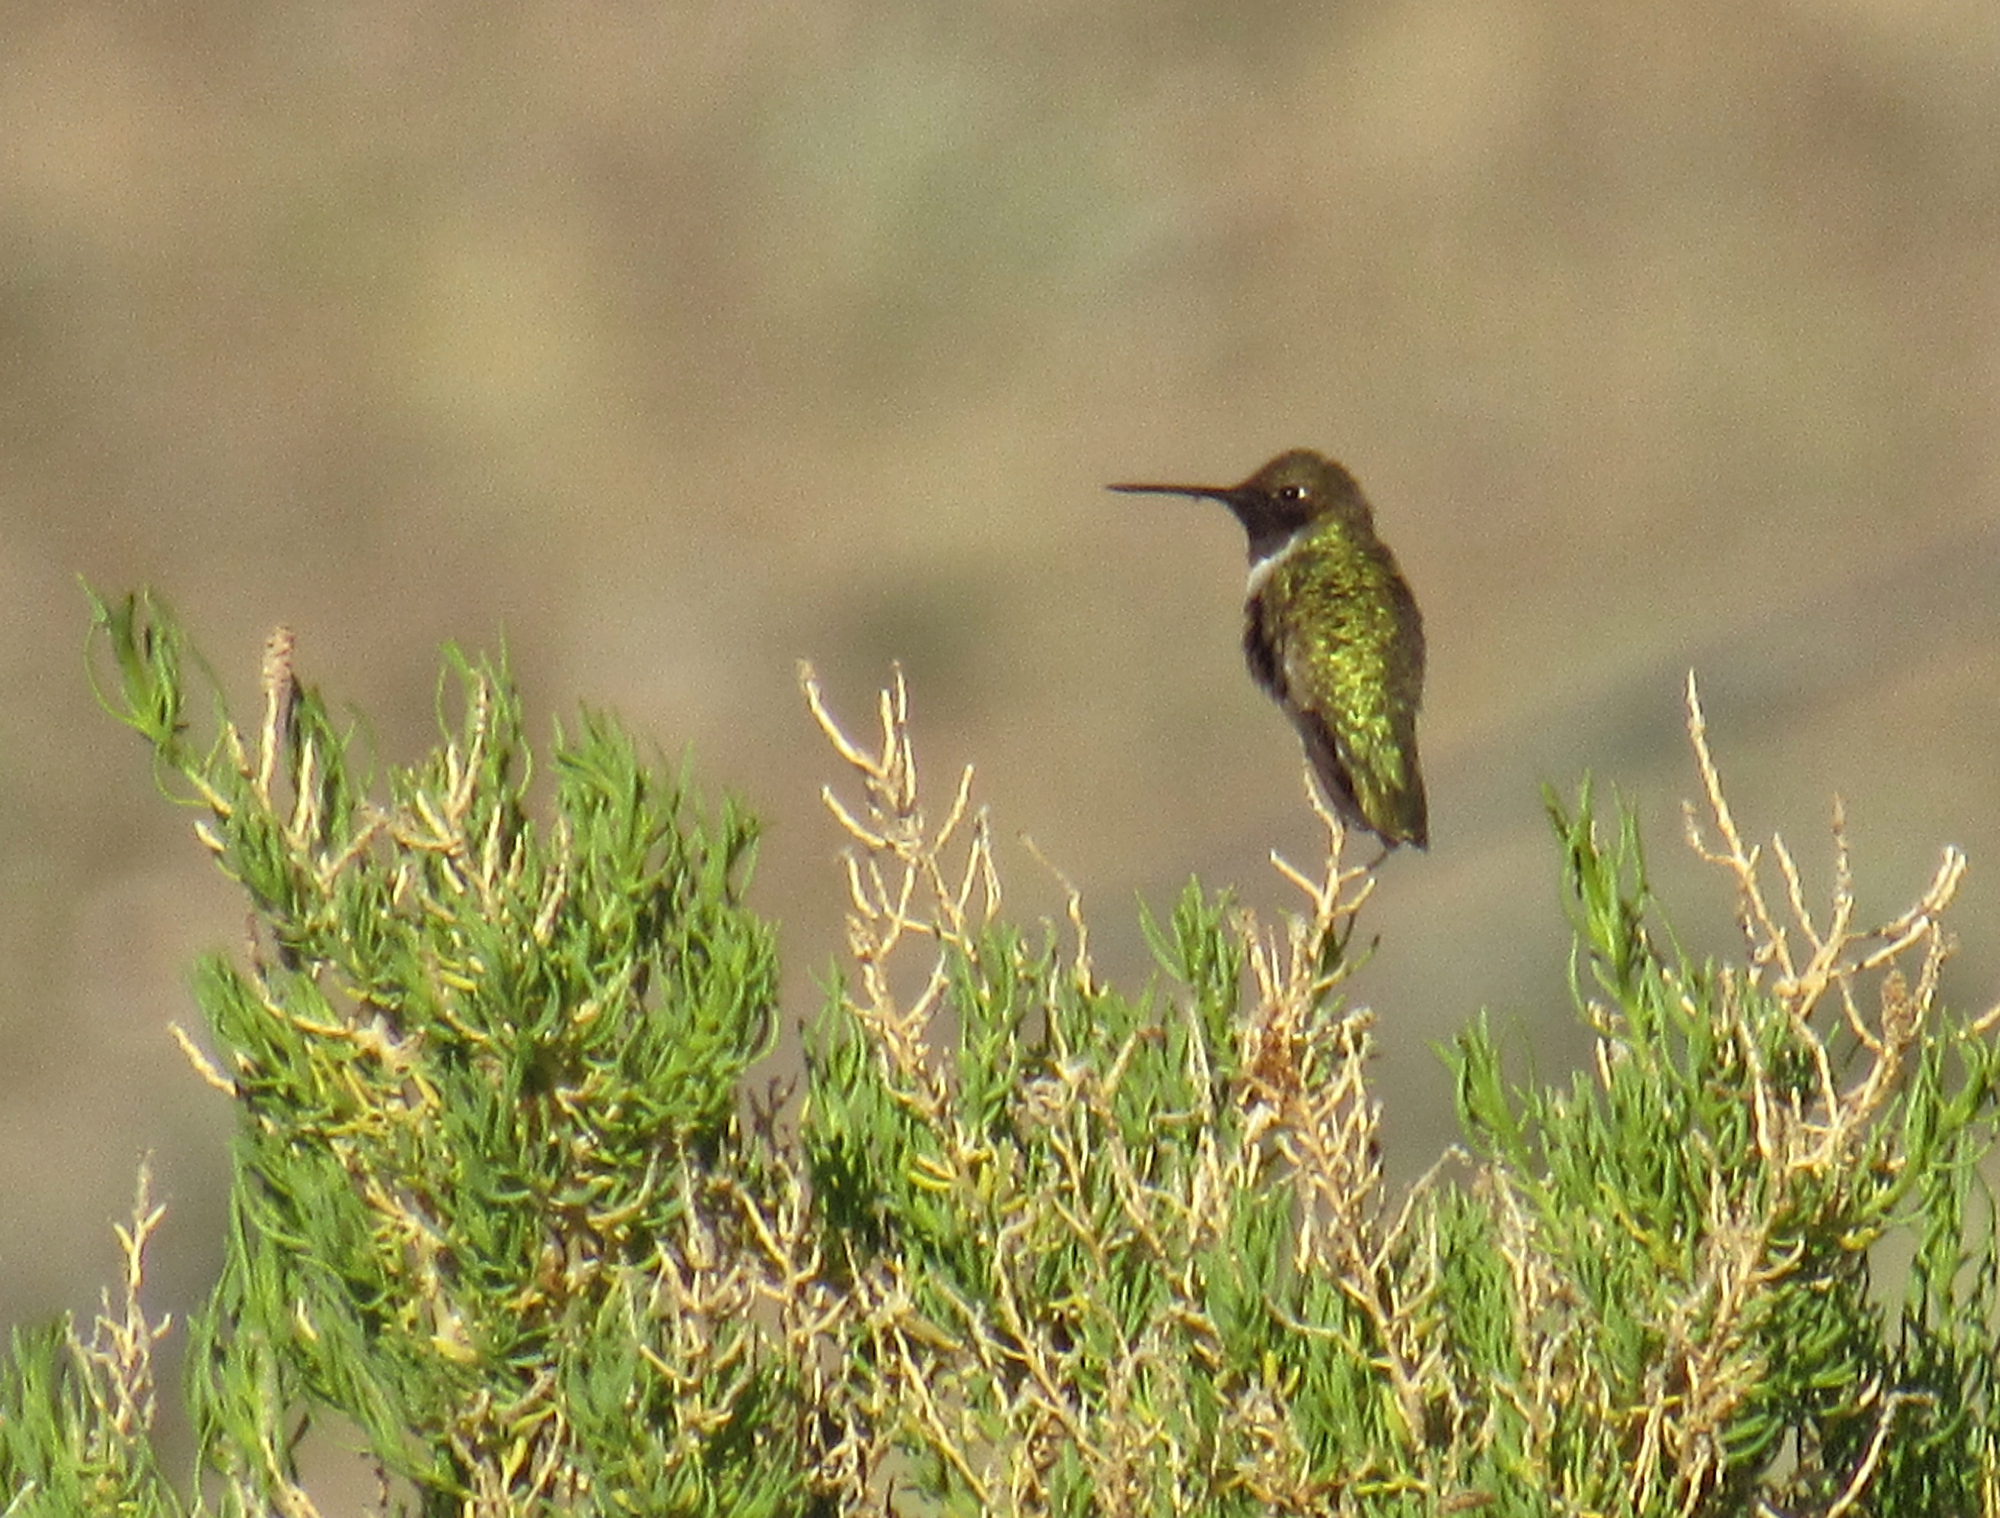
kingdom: Animalia
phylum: Chordata
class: Aves
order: Apodiformes
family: Trochilidae
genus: Archilochus
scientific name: Archilochus alexandri
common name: Black-chinned hummingbird
